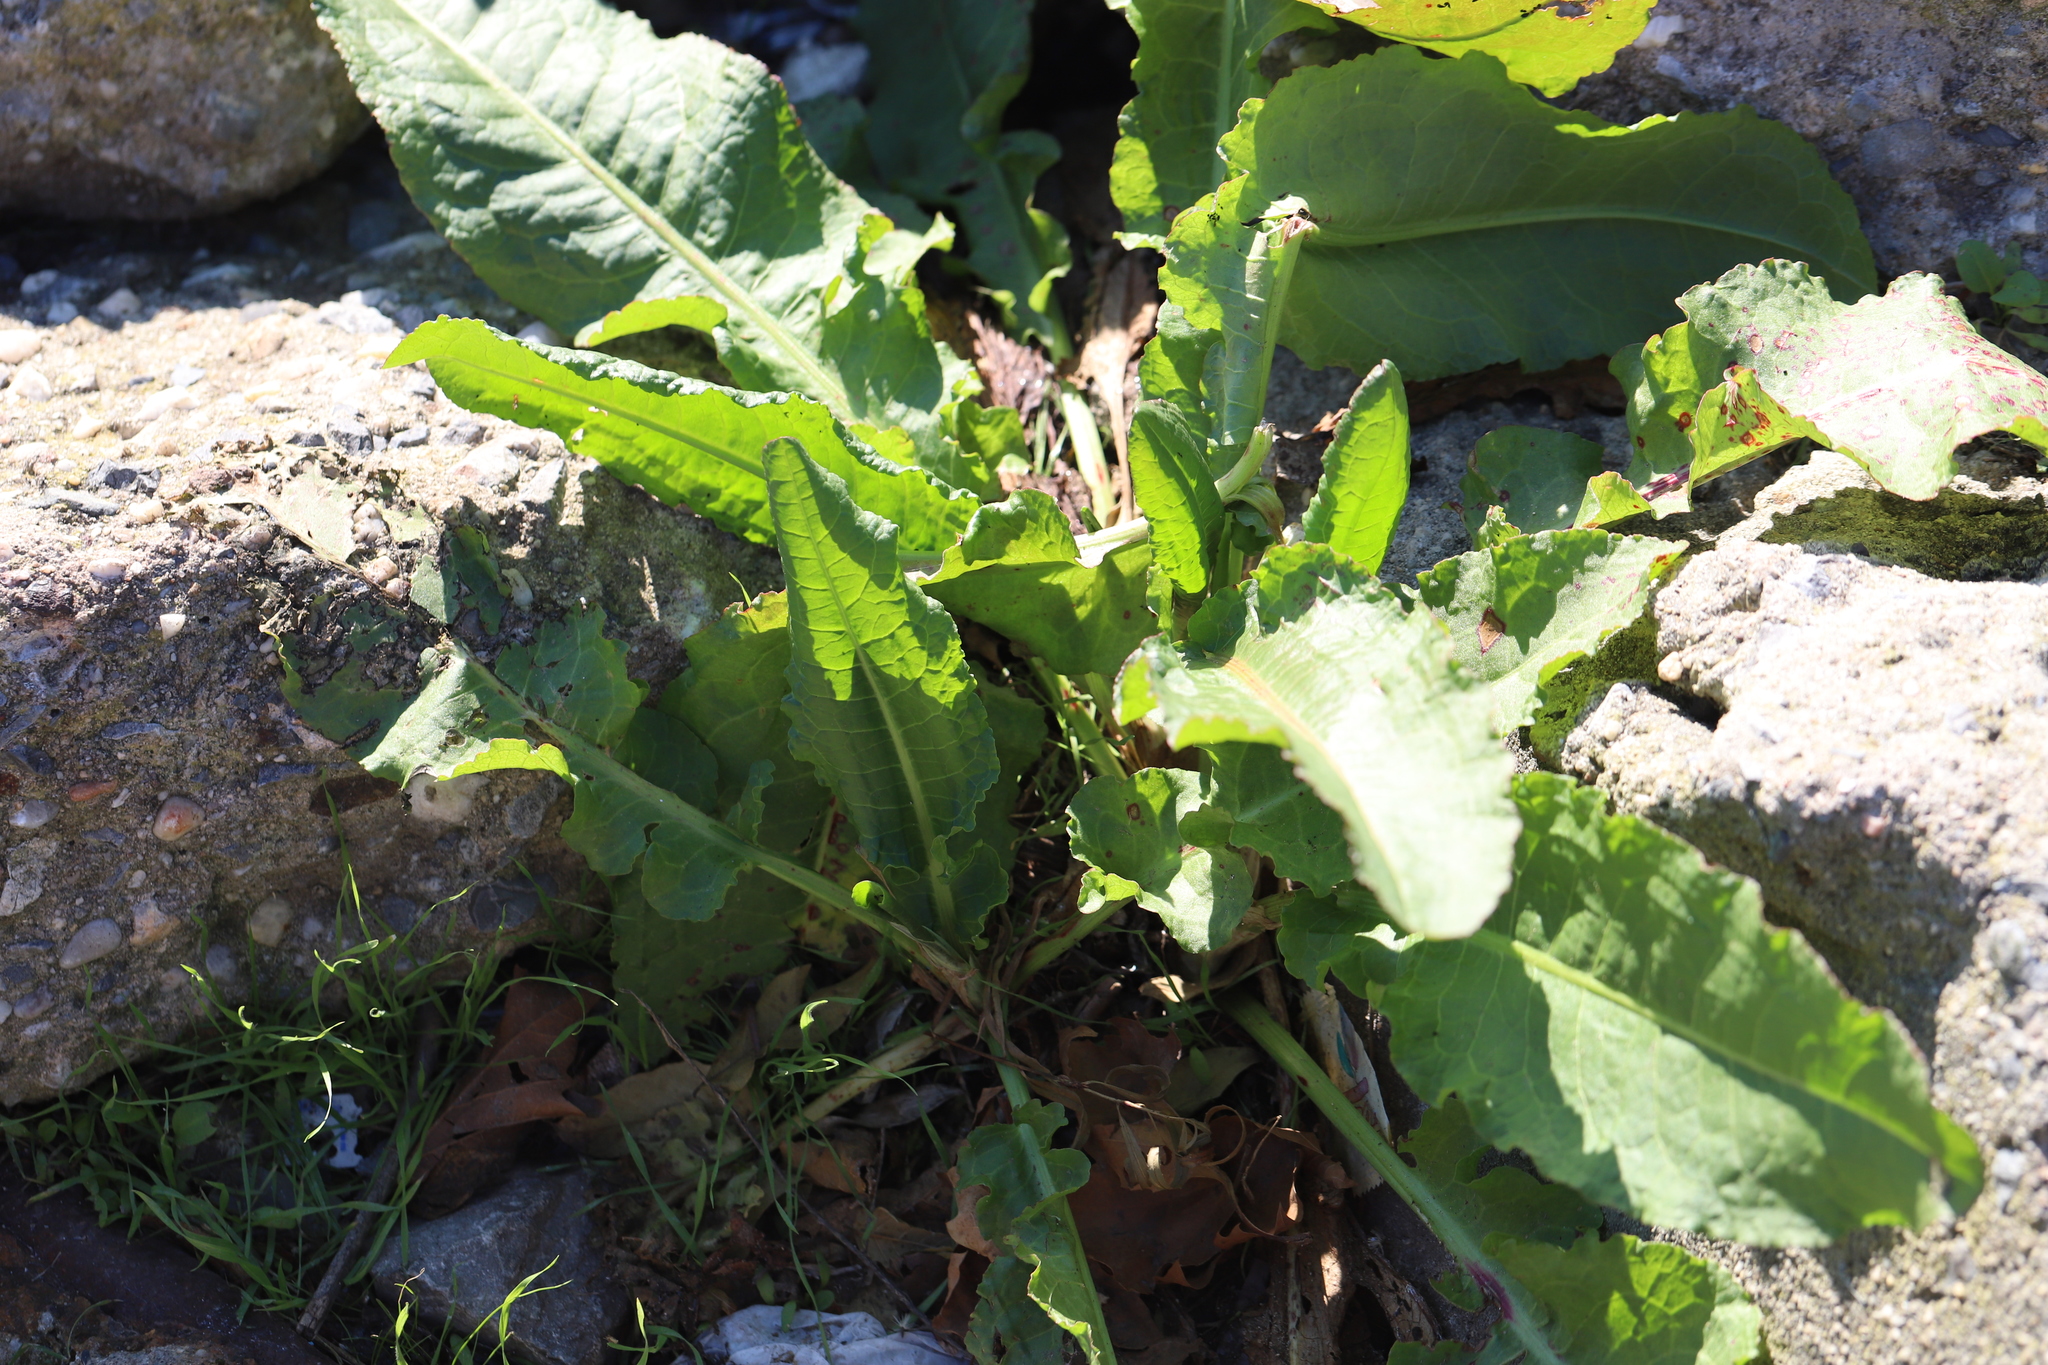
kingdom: Plantae
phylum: Tracheophyta
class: Magnoliopsida
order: Caryophyllales
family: Polygonaceae
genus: Rumex
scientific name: Rumex crispus
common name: Curled dock
